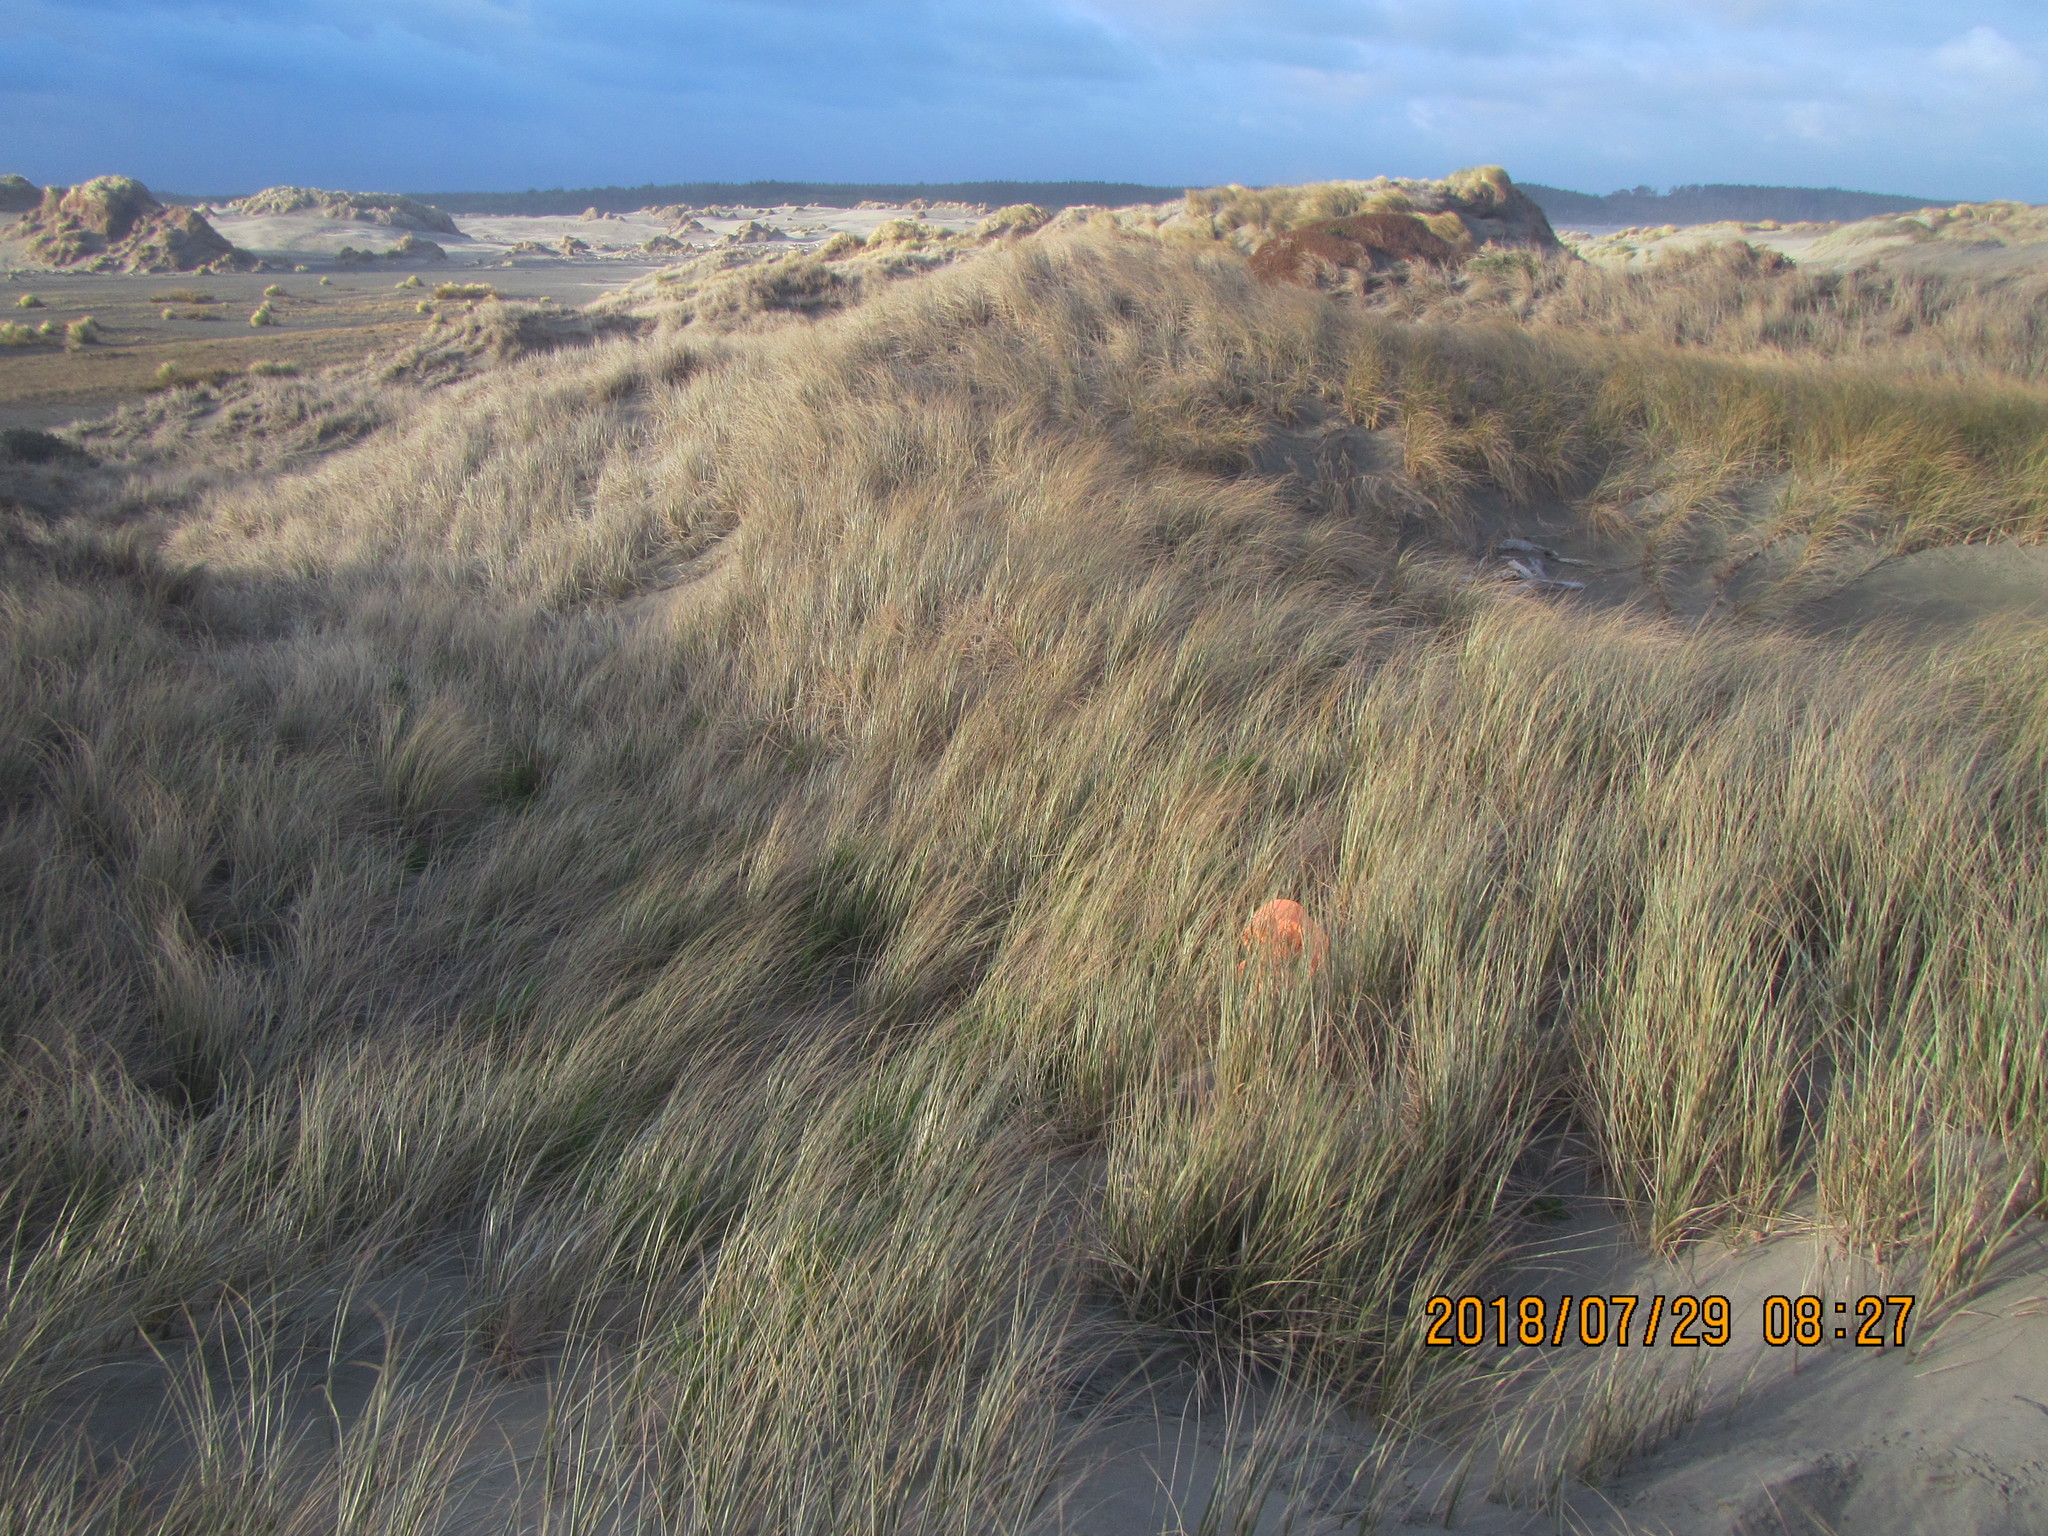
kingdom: Fungi
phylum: Basidiomycota
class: Agaricomycetes
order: Phallales
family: Phallaceae
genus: Ileodictyon
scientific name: Ileodictyon cibarium
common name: Basket fungus
